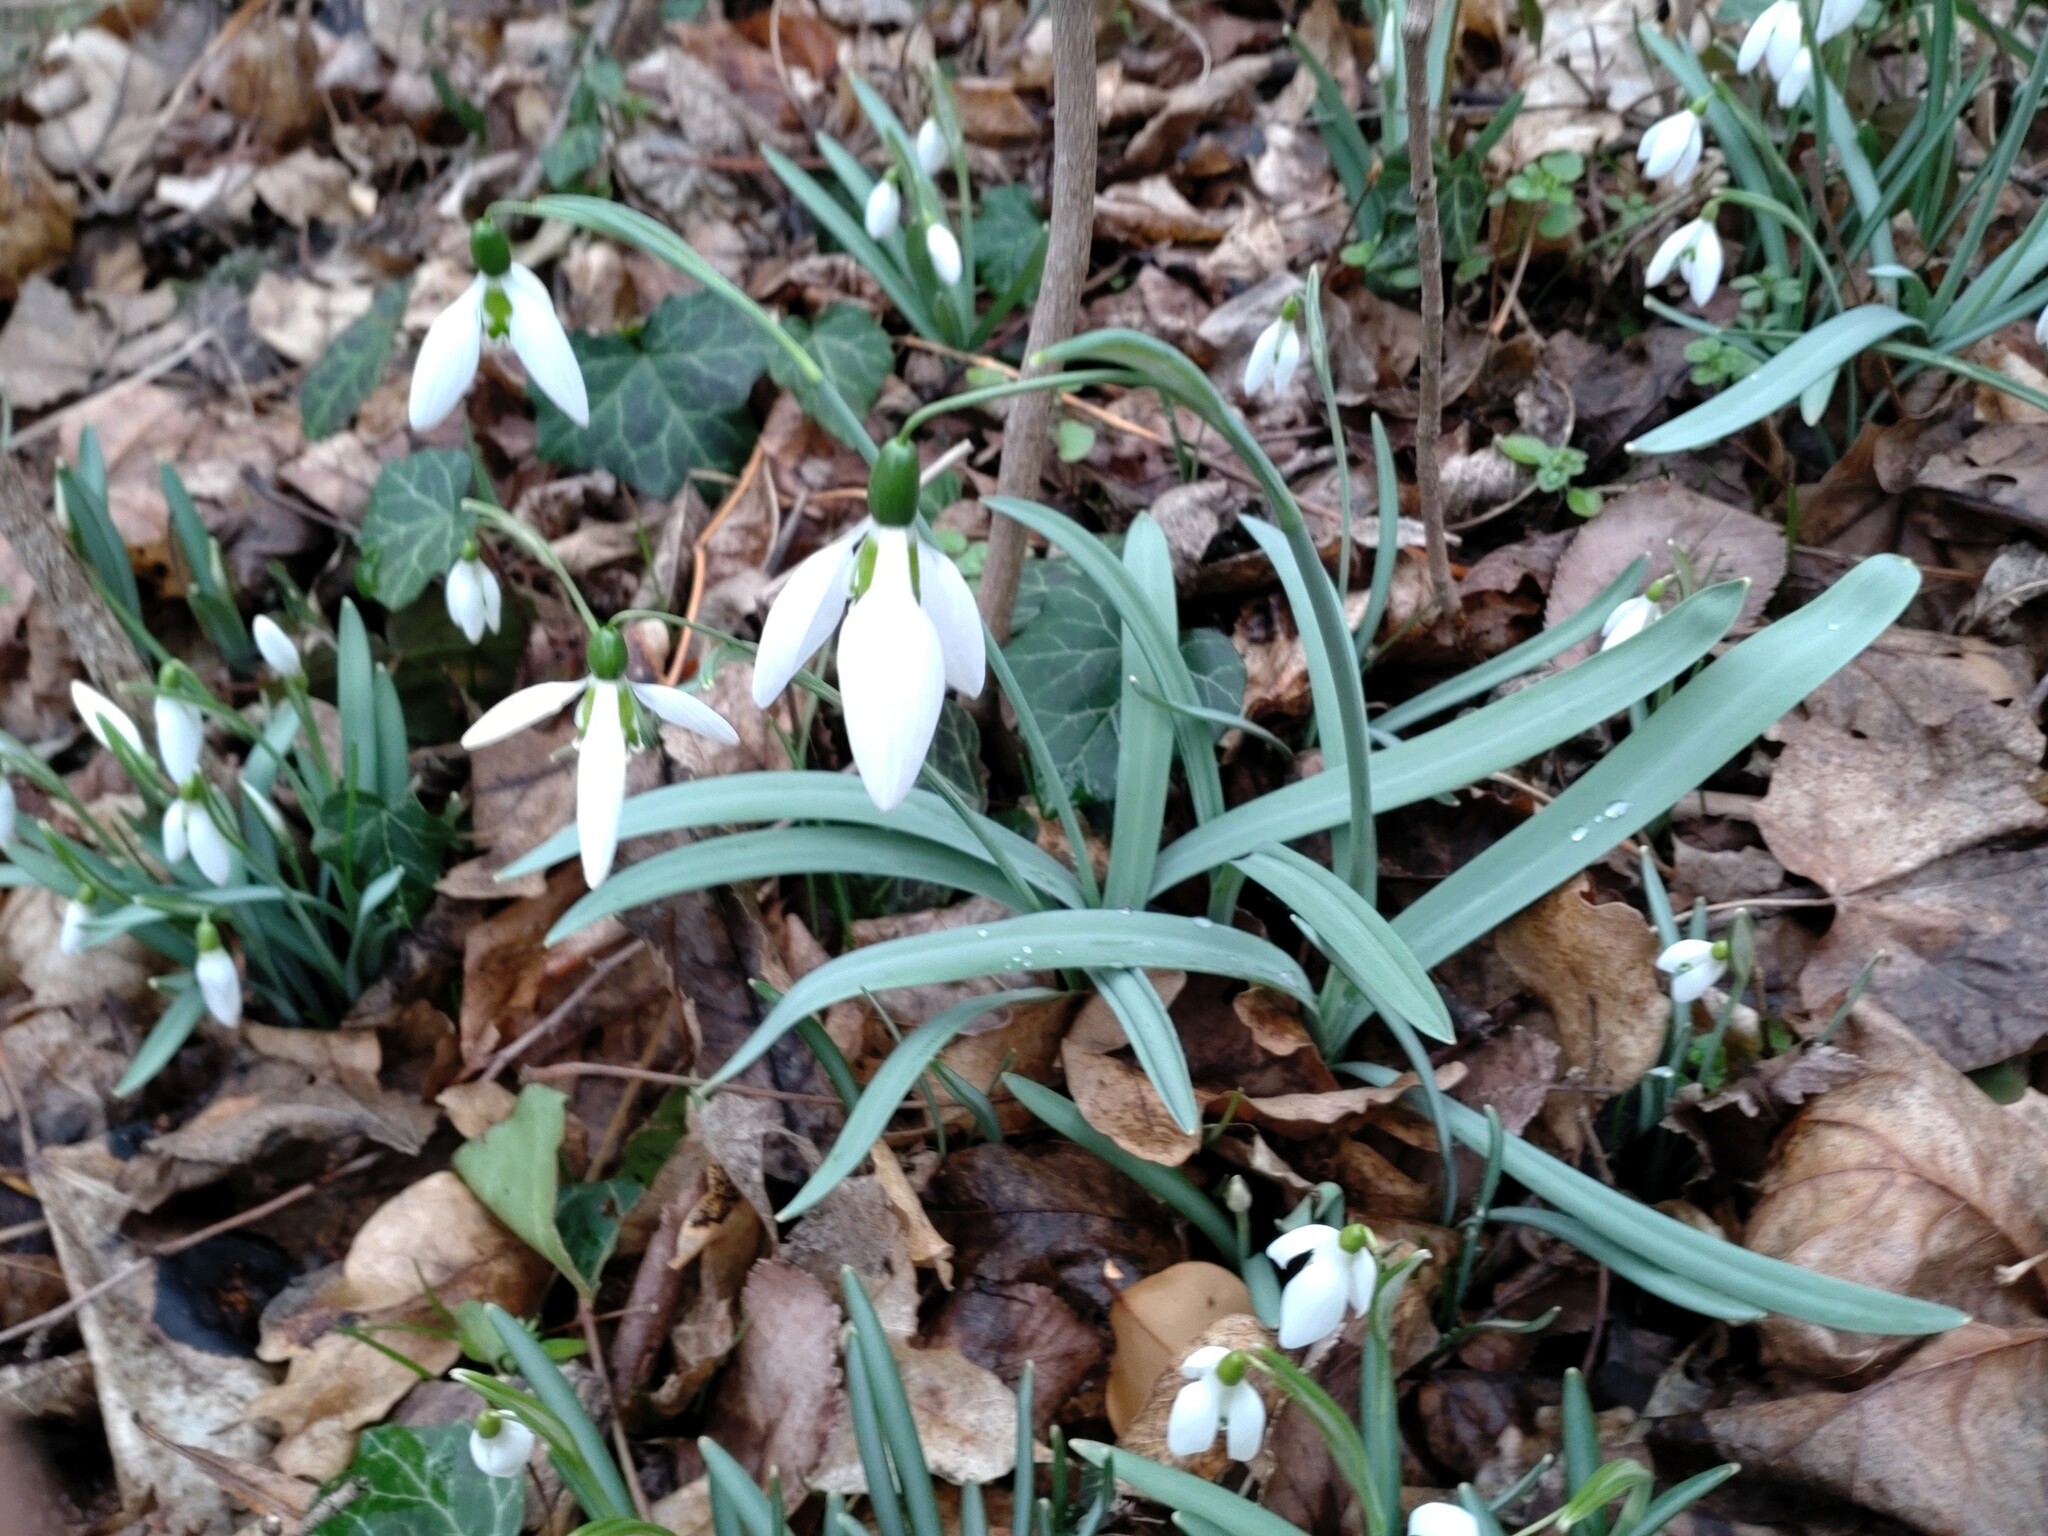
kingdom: Plantae
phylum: Tracheophyta
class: Liliopsida
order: Asparagales
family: Amaryllidaceae
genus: Galanthus
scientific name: Galanthus elwesii
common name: Greater snowdrop
